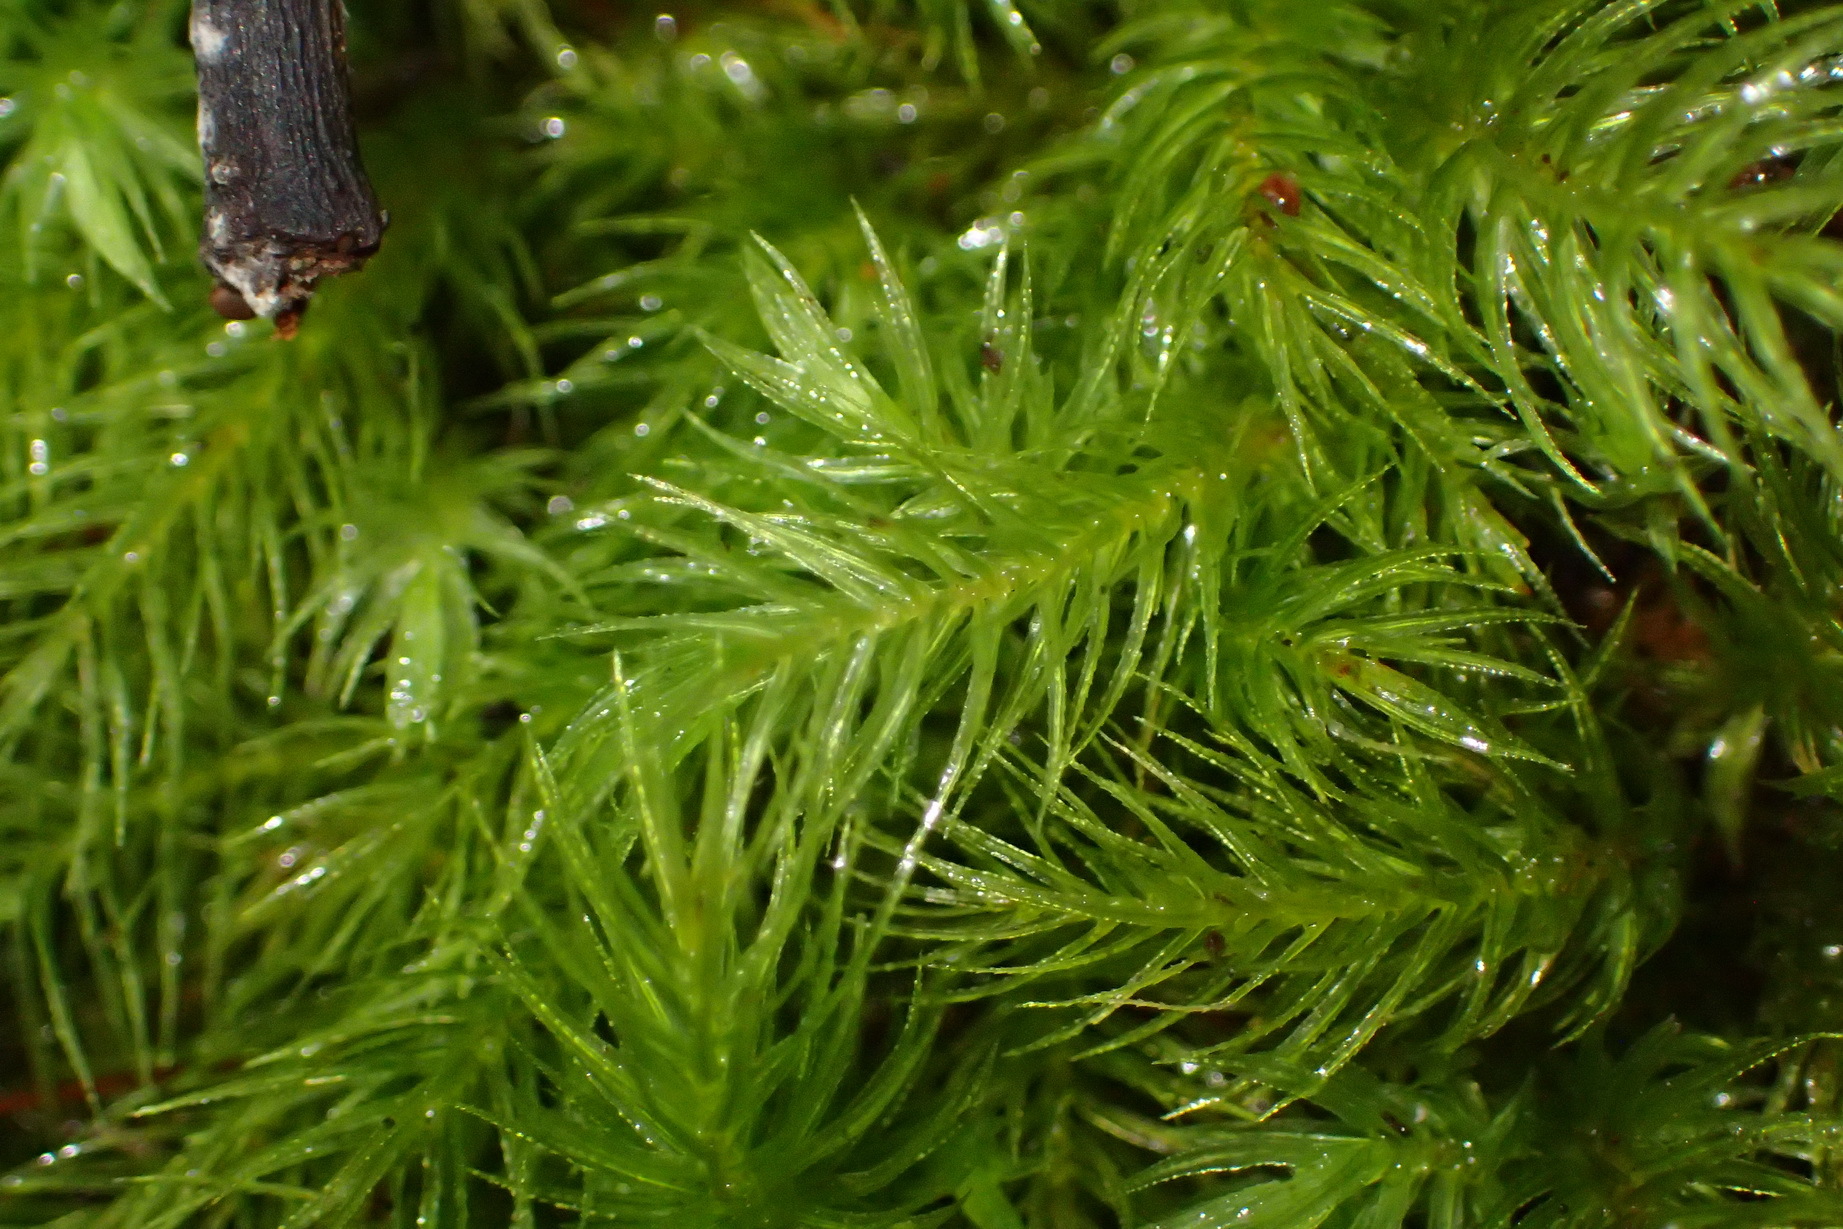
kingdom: Plantae
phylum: Bryophyta
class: Bryopsida
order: Rhizogoniales
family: Calomniaceae
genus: Pyrrhobryum
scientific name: Pyrrhobryum spiniforme
